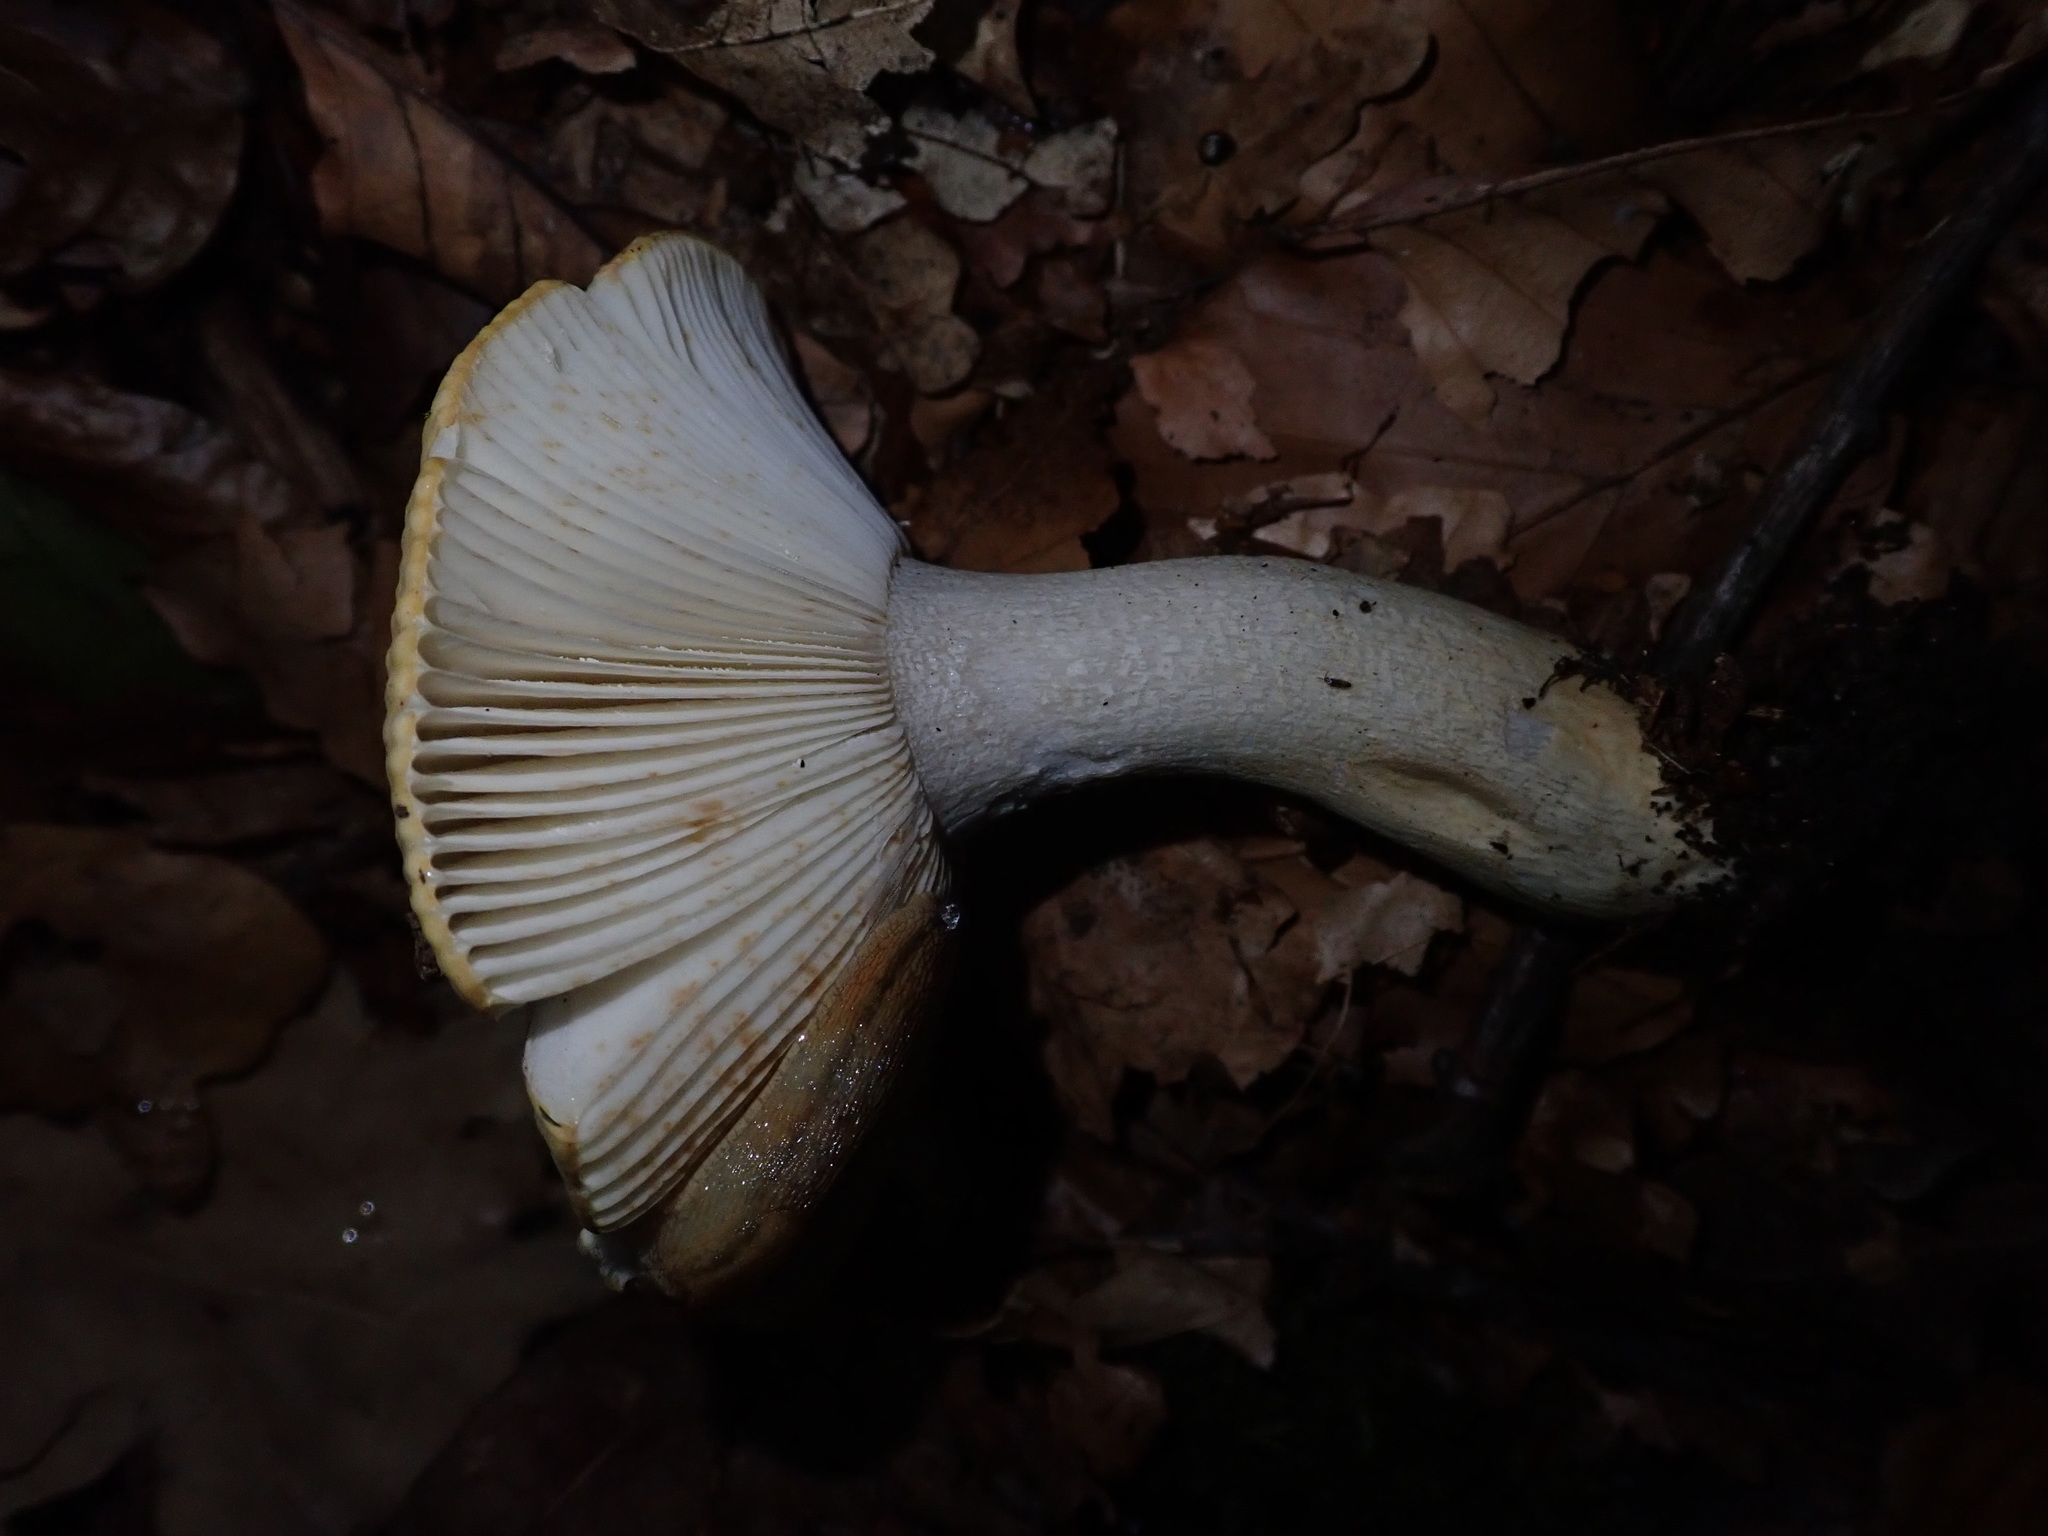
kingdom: Fungi
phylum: Basidiomycota
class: Agaricomycetes
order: Russulales
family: Russulaceae
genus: Russula
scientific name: Russula ochroleuca
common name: Common yellow russula
